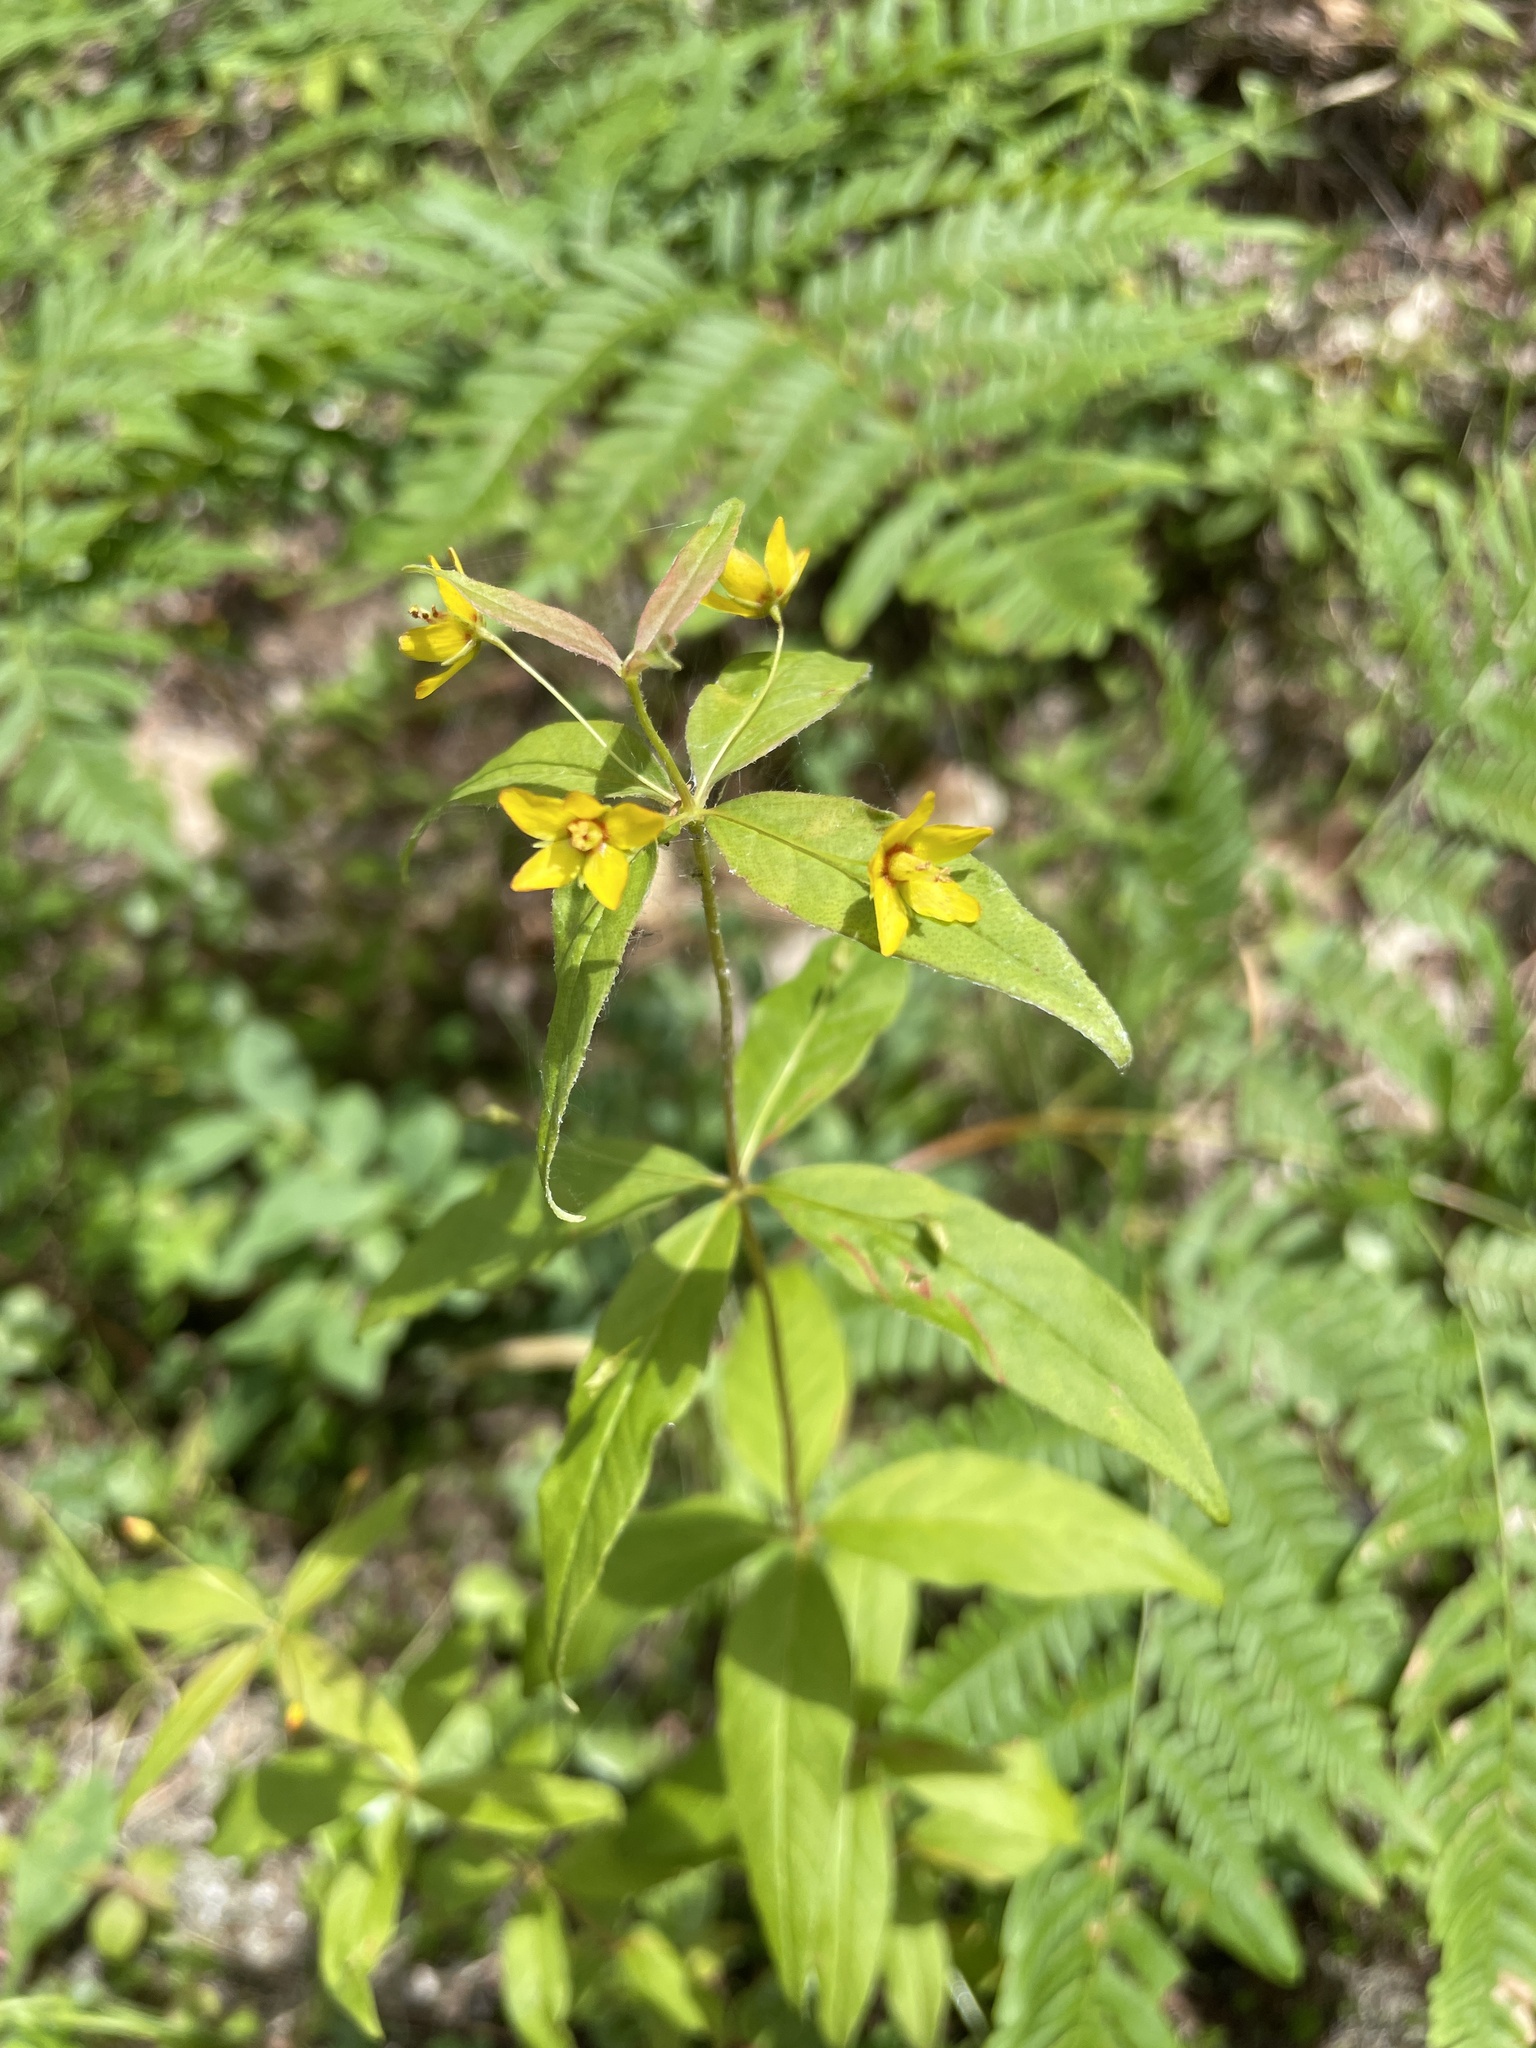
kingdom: Plantae
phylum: Tracheophyta
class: Magnoliopsida
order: Ericales
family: Primulaceae
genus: Lysimachia
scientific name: Lysimachia quadrifolia
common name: Whorled loosestrife
